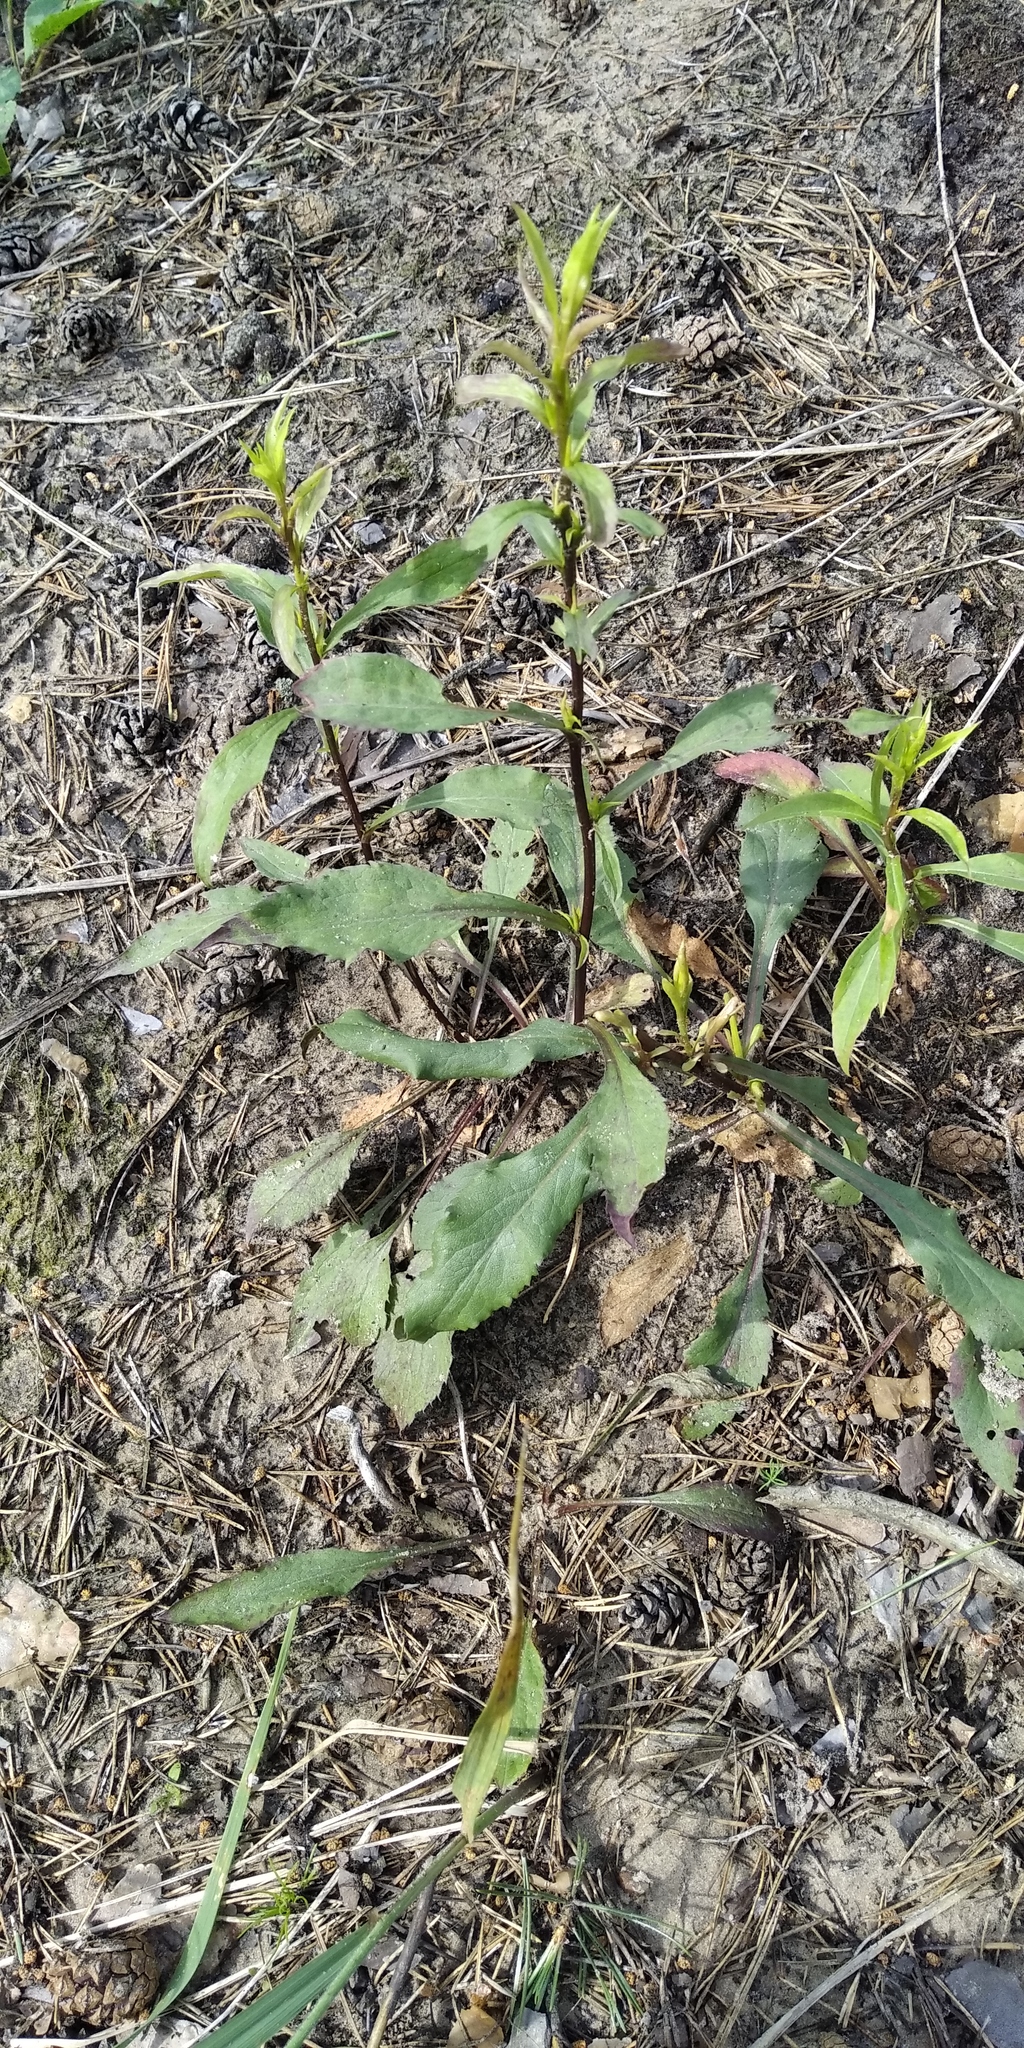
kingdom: Plantae
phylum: Tracheophyta
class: Magnoliopsida
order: Asterales
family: Asteraceae
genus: Solidago
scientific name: Solidago virgaurea
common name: Goldenrod
